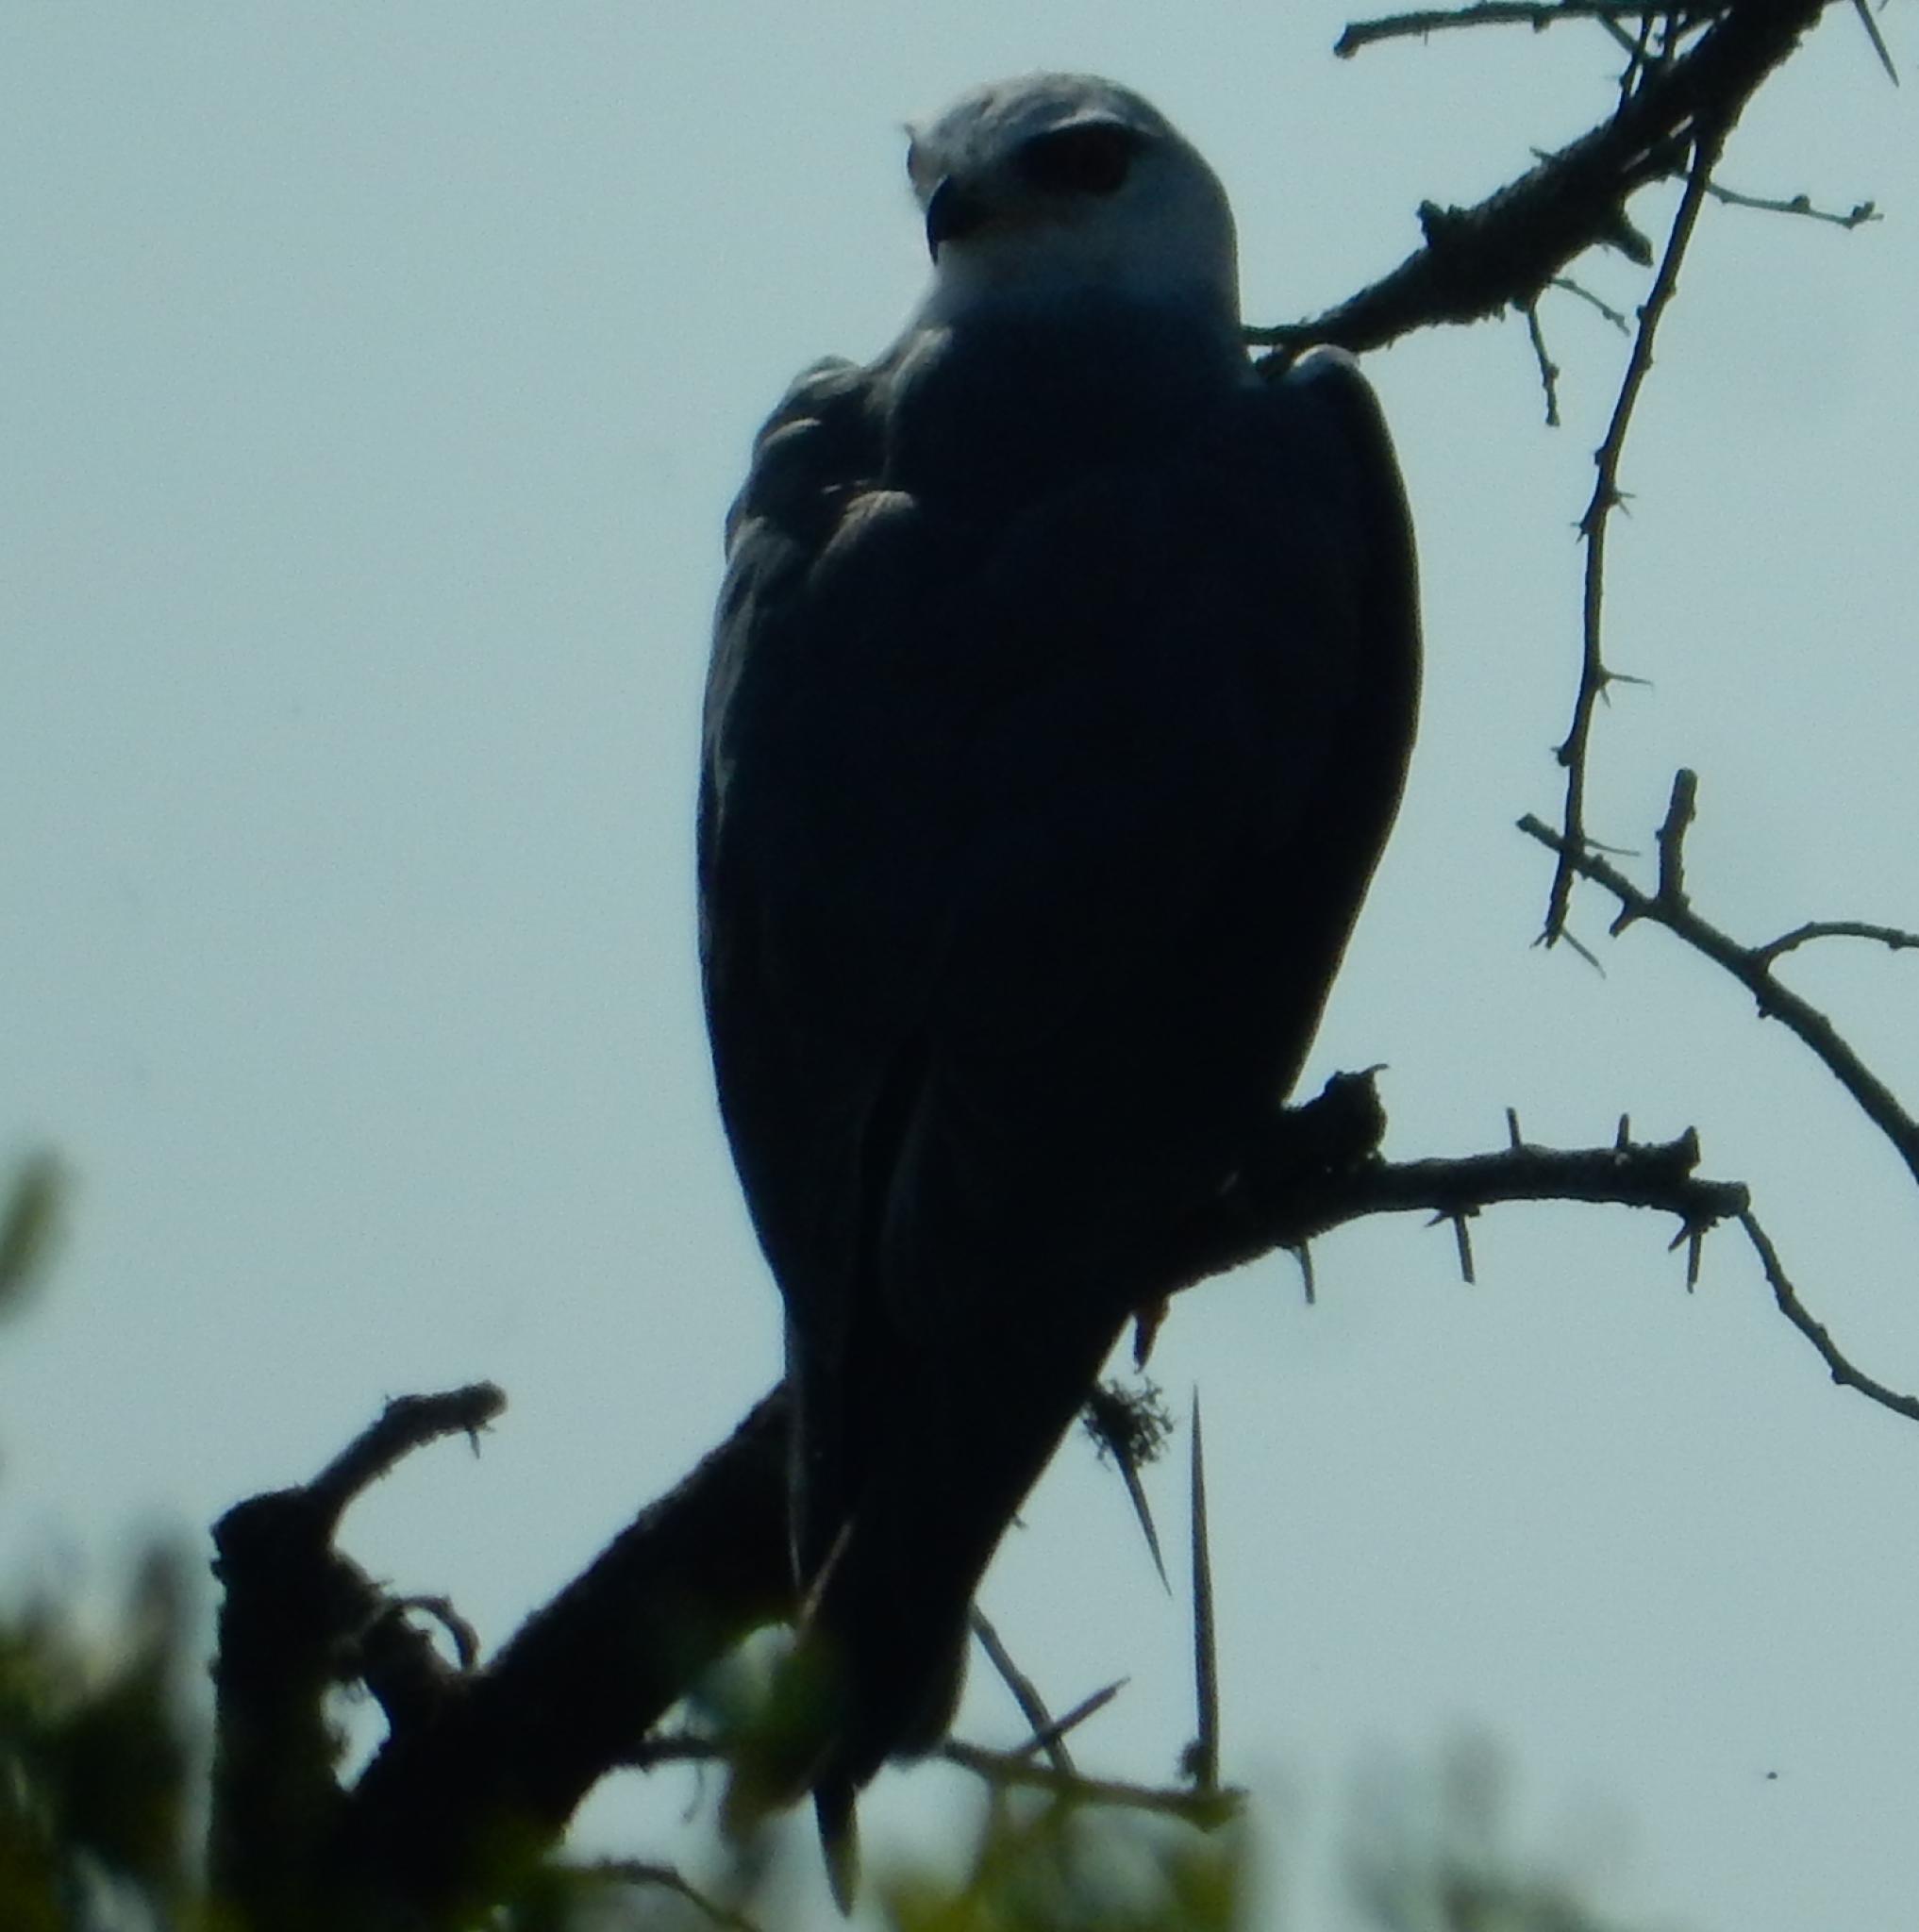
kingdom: Animalia
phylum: Chordata
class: Aves
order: Accipitriformes
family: Accipitridae
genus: Elanus
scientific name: Elanus caeruleus
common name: Black-winged kite
